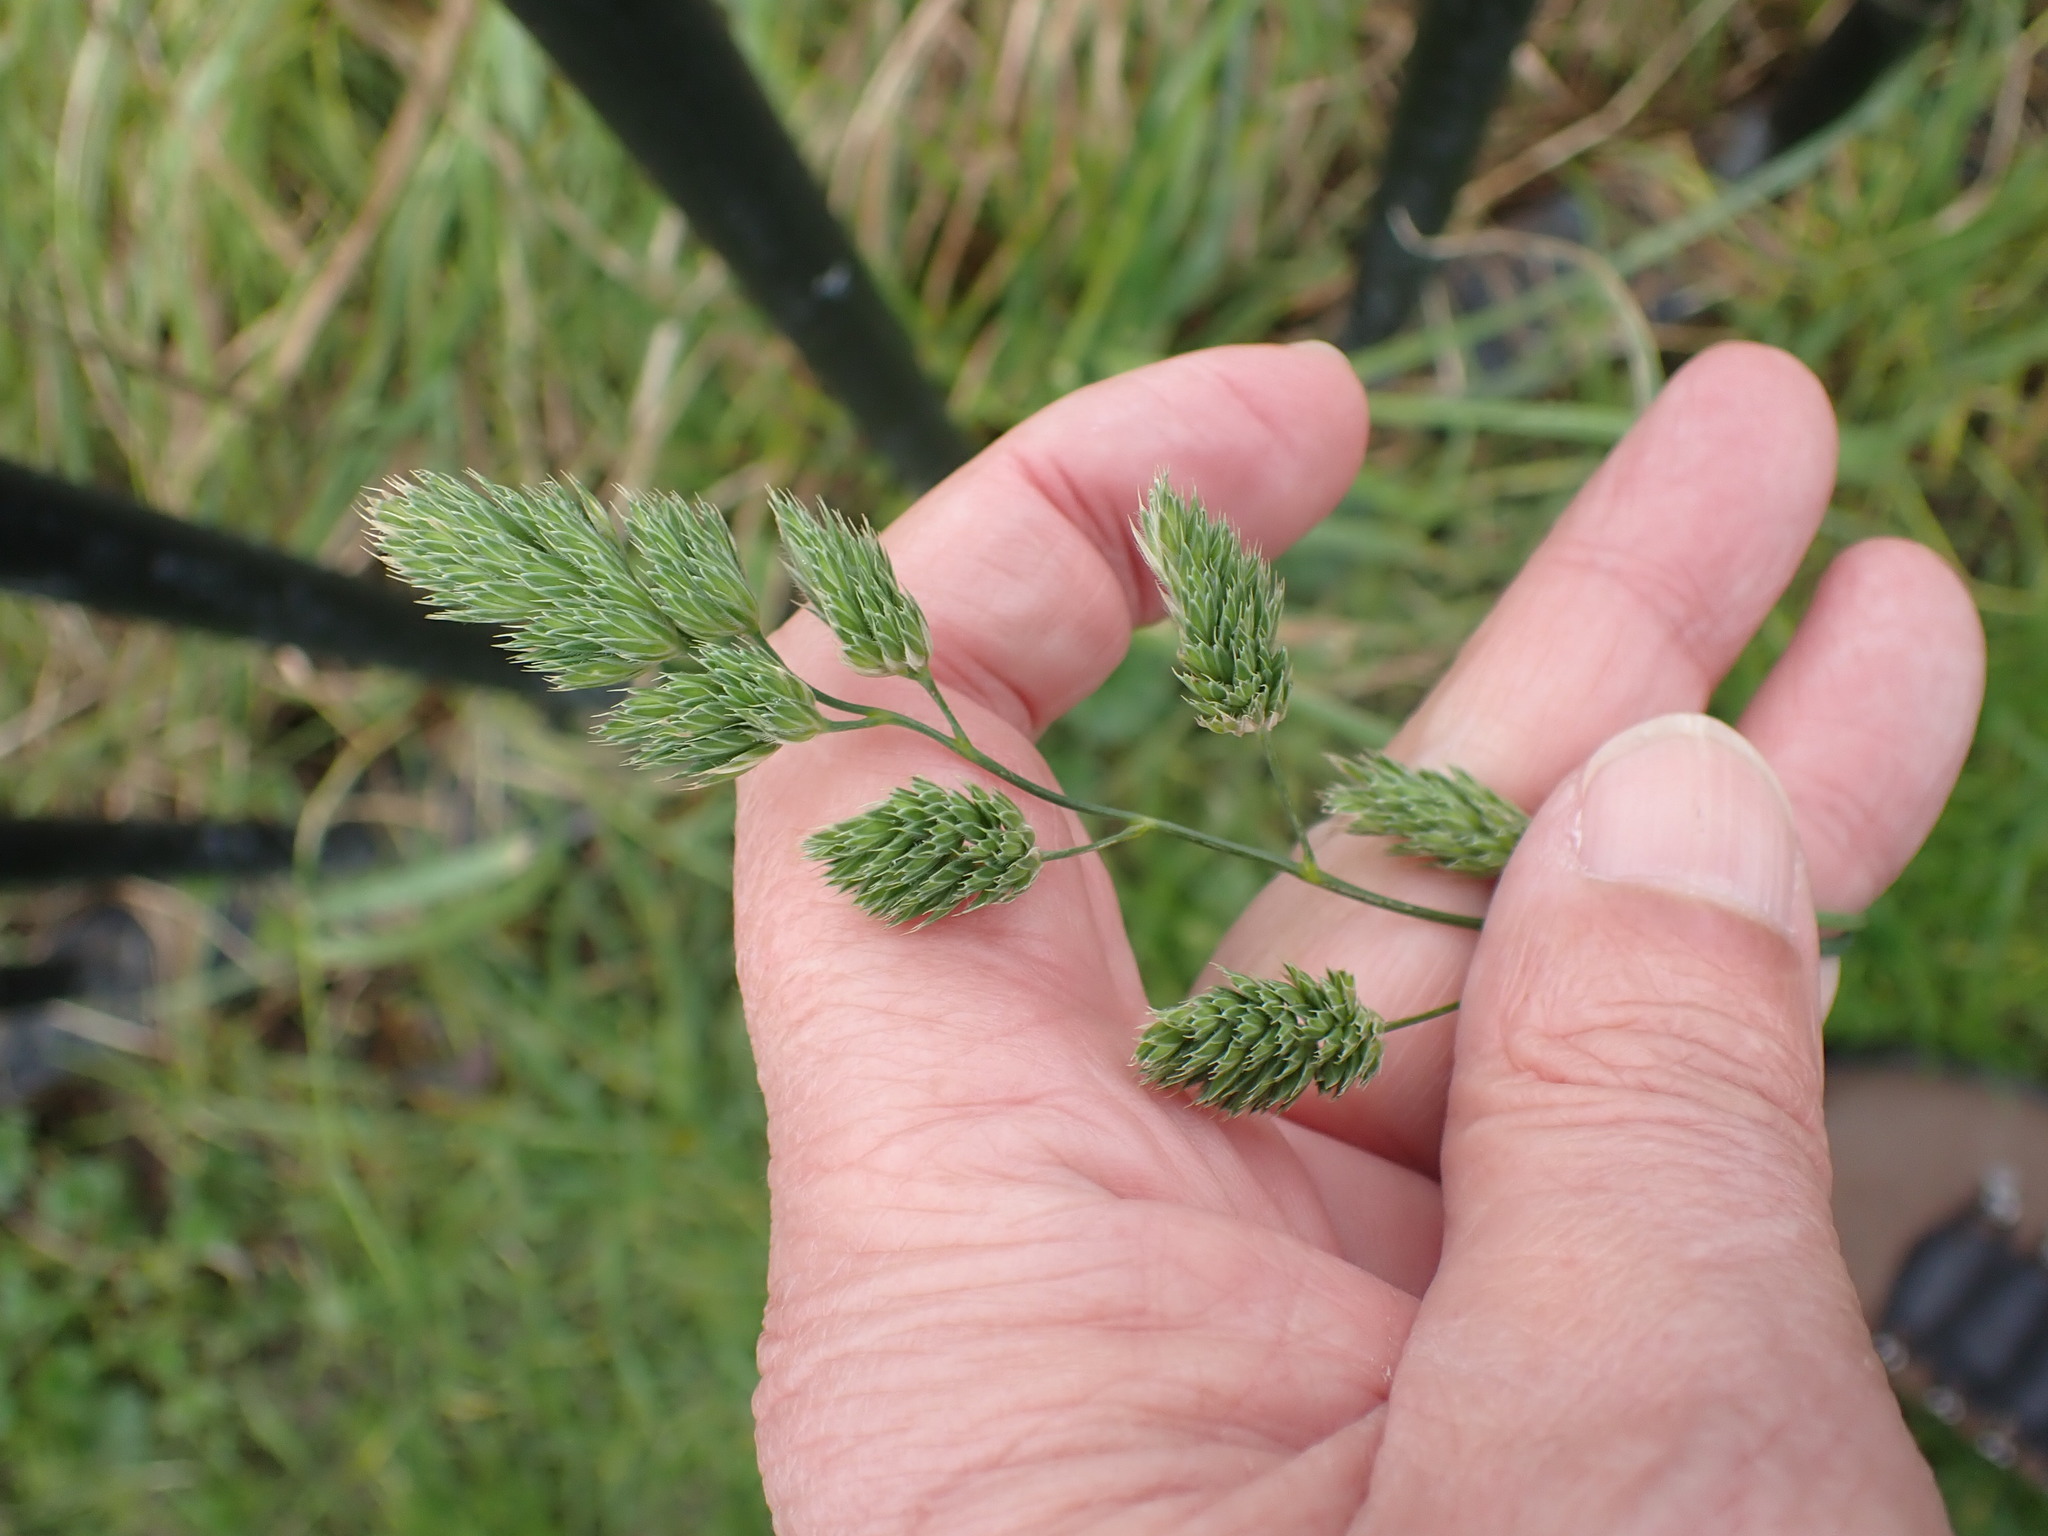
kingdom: Plantae
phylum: Tracheophyta
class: Liliopsida
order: Poales
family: Poaceae
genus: Dactylis
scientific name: Dactylis glomerata
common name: Orchardgrass
